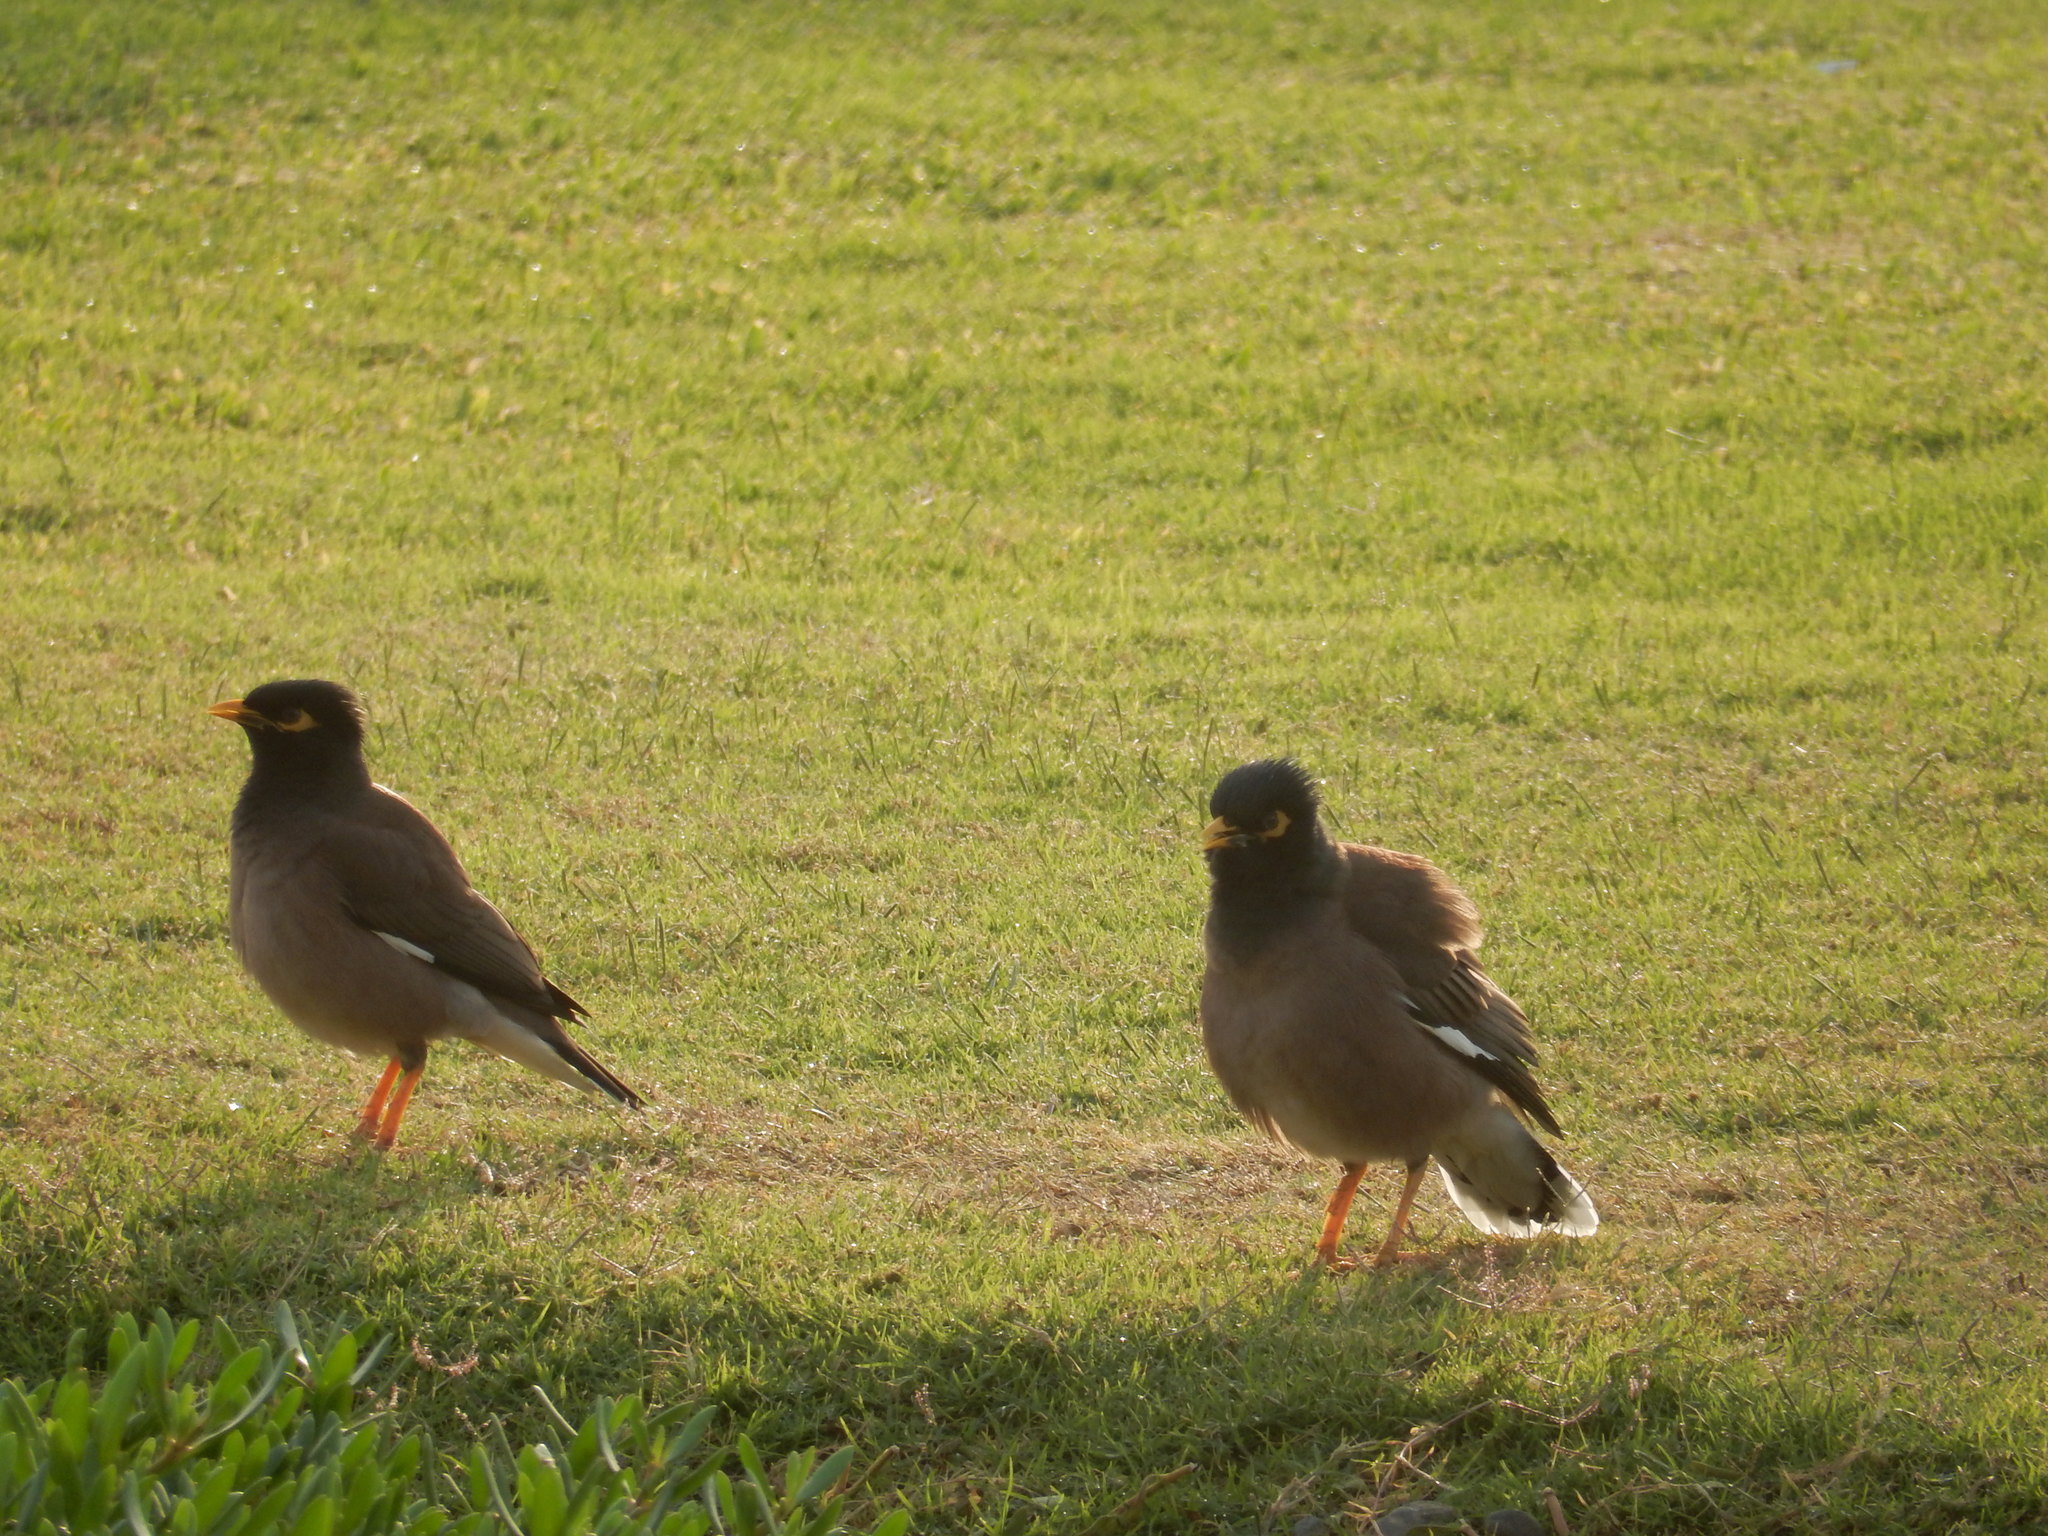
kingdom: Animalia
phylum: Chordata
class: Aves
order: Passeriformes
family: Sturnidae
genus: Acridotheres
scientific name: Acridotheres tristis
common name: Common myna
